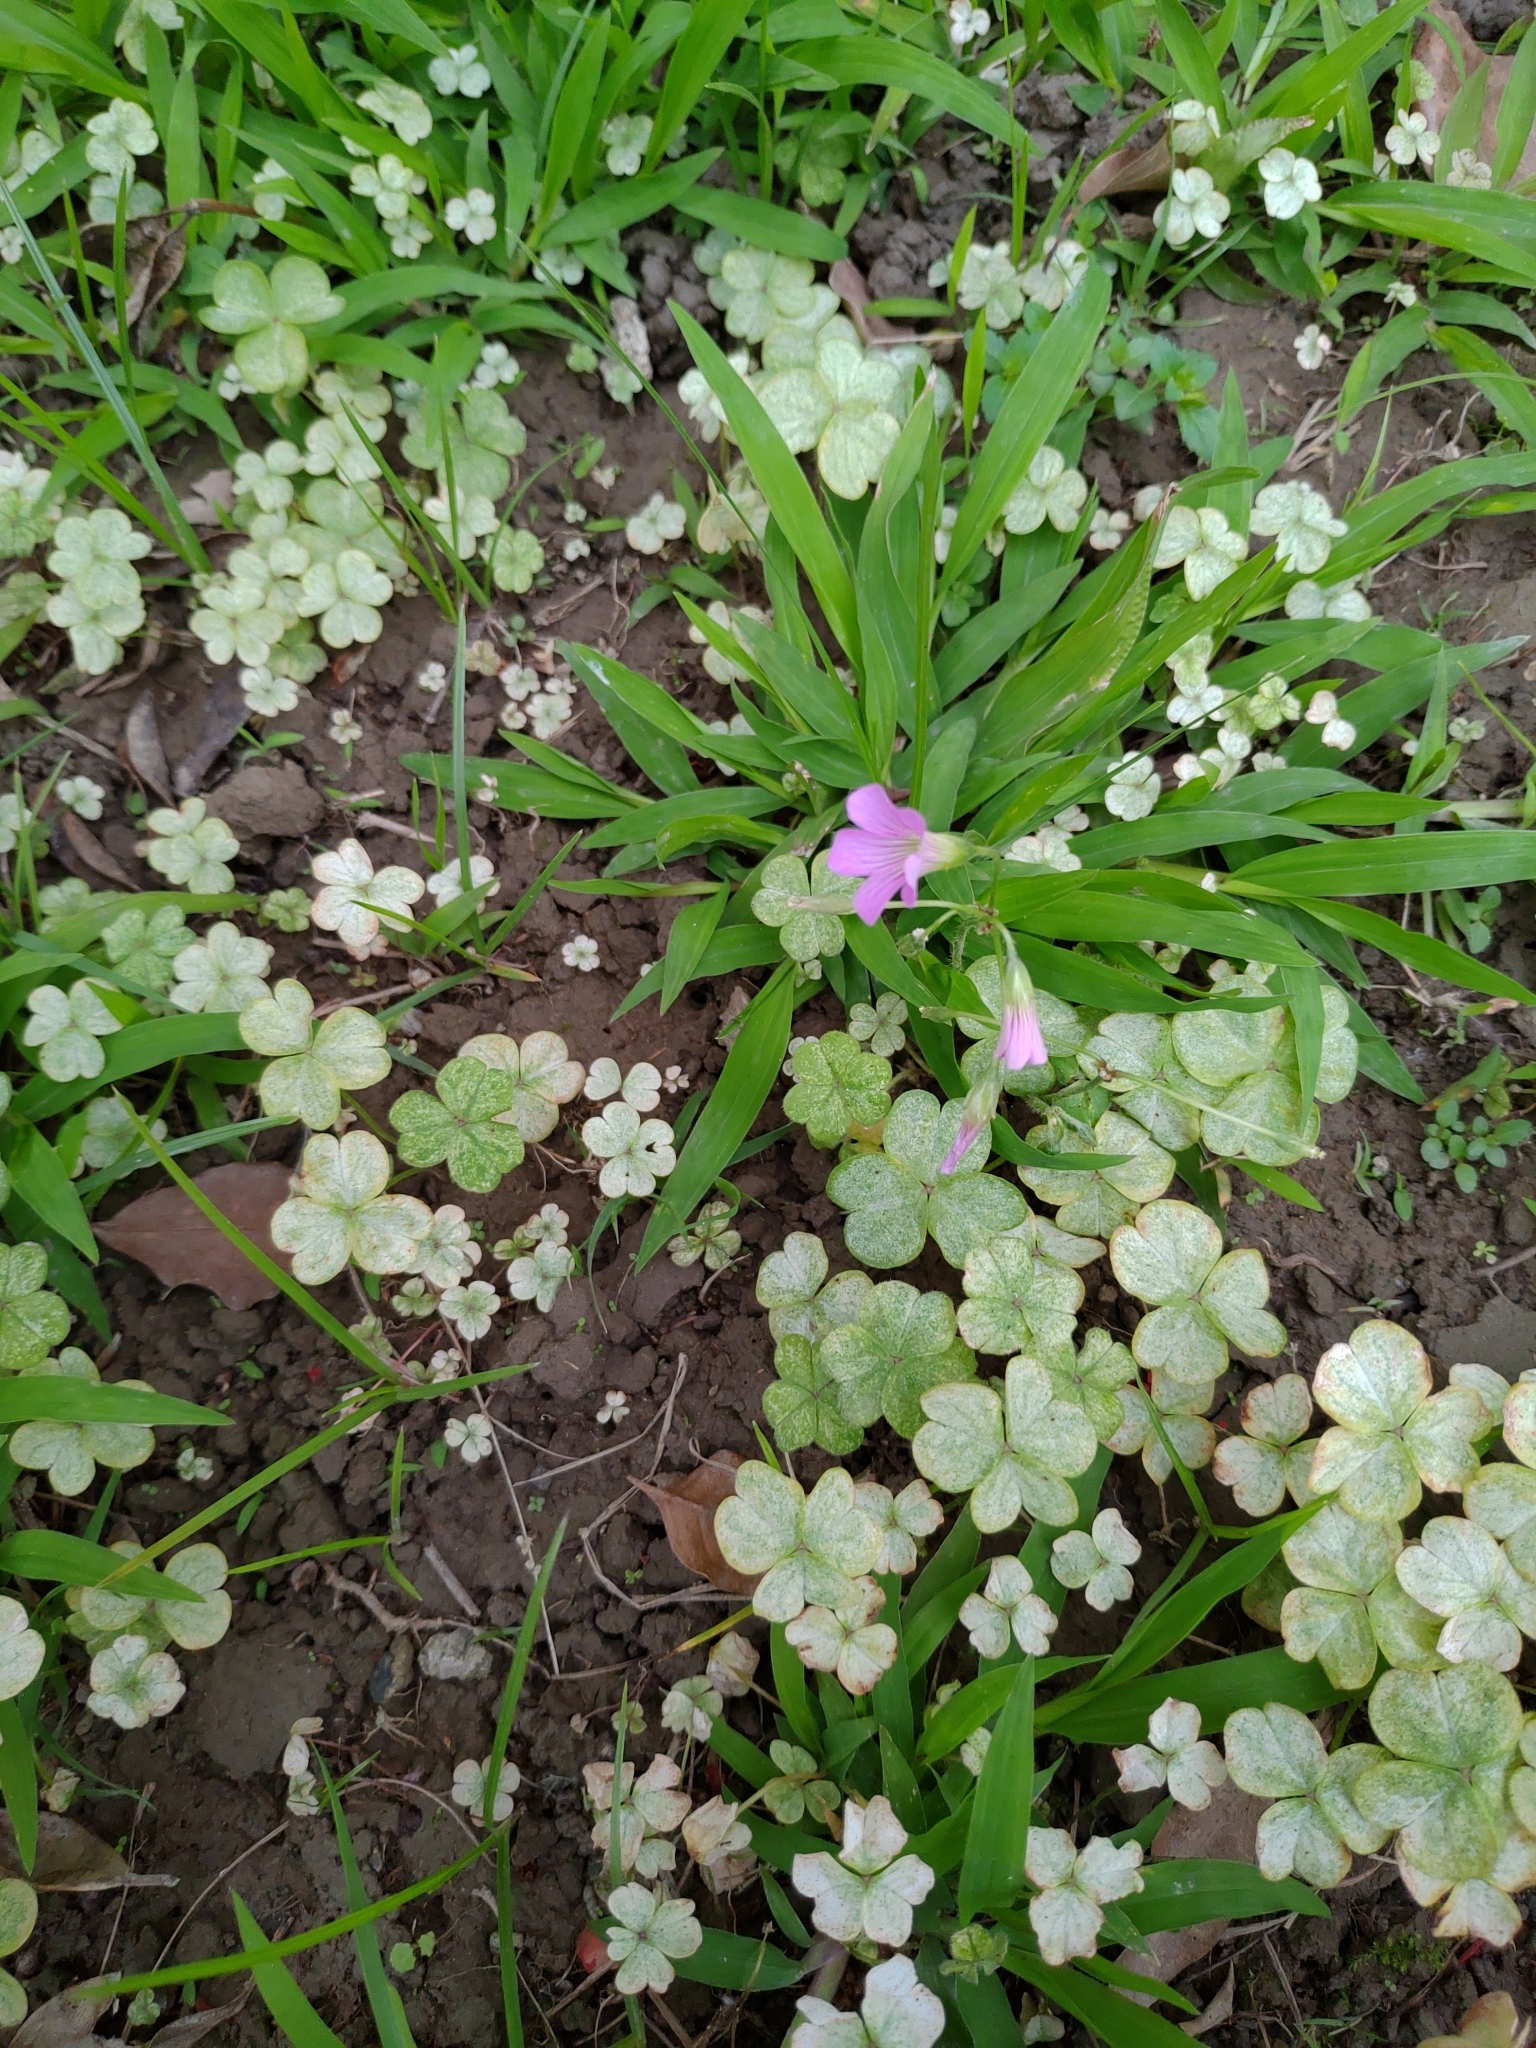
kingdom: Plantae
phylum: Tracheophyta
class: Magnoliopsida
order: Oxalidales
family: Oxalidaceae
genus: Oxalis
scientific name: Oxalis debilis
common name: Large-flowered pink-sorrel
